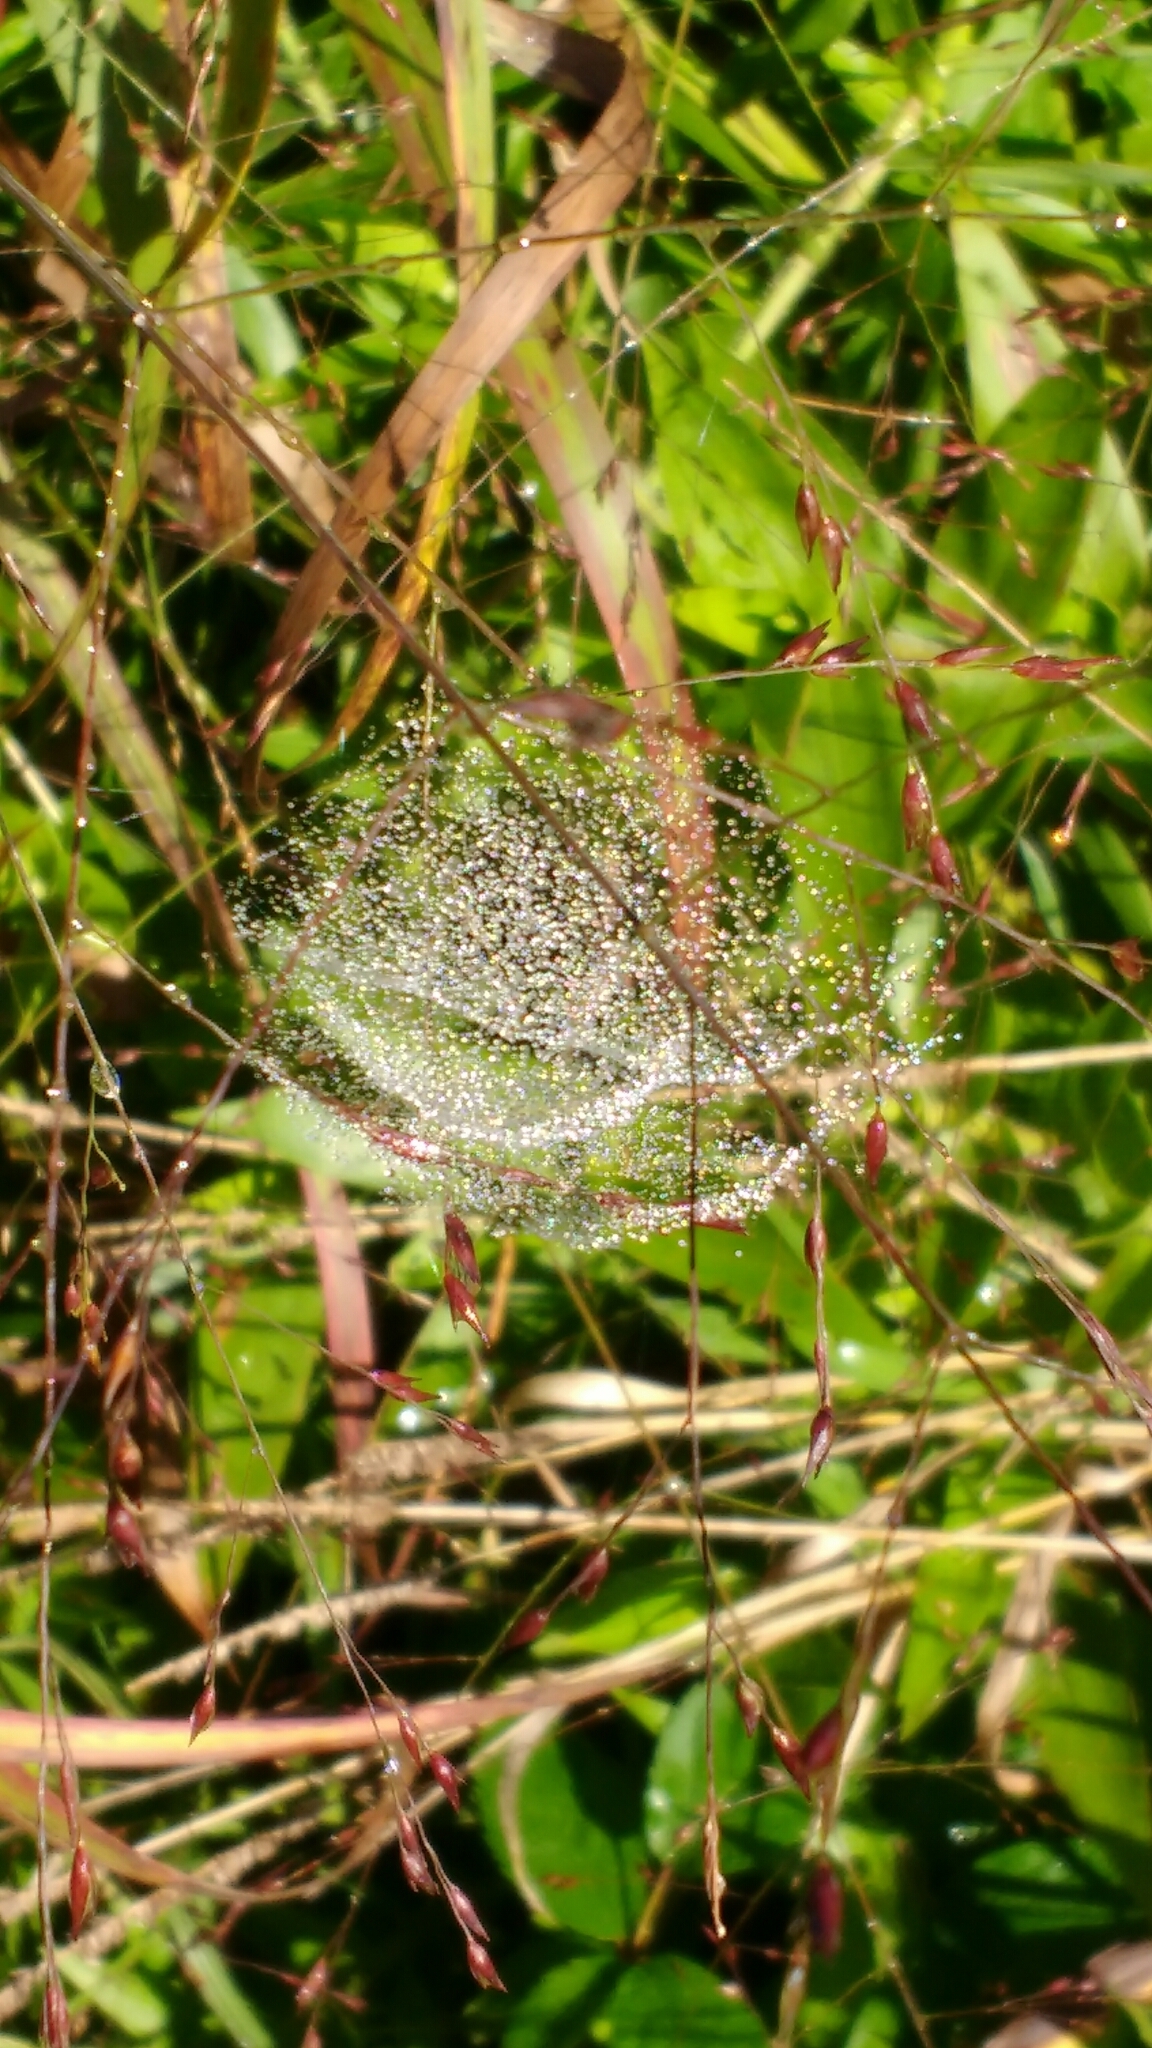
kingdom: Animalia
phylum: Arthropoda
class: Arachnida
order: Araneae
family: Linyphiidae
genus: Frontinella
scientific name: Frontinella pyramitela
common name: Bowl-and-doily spider
